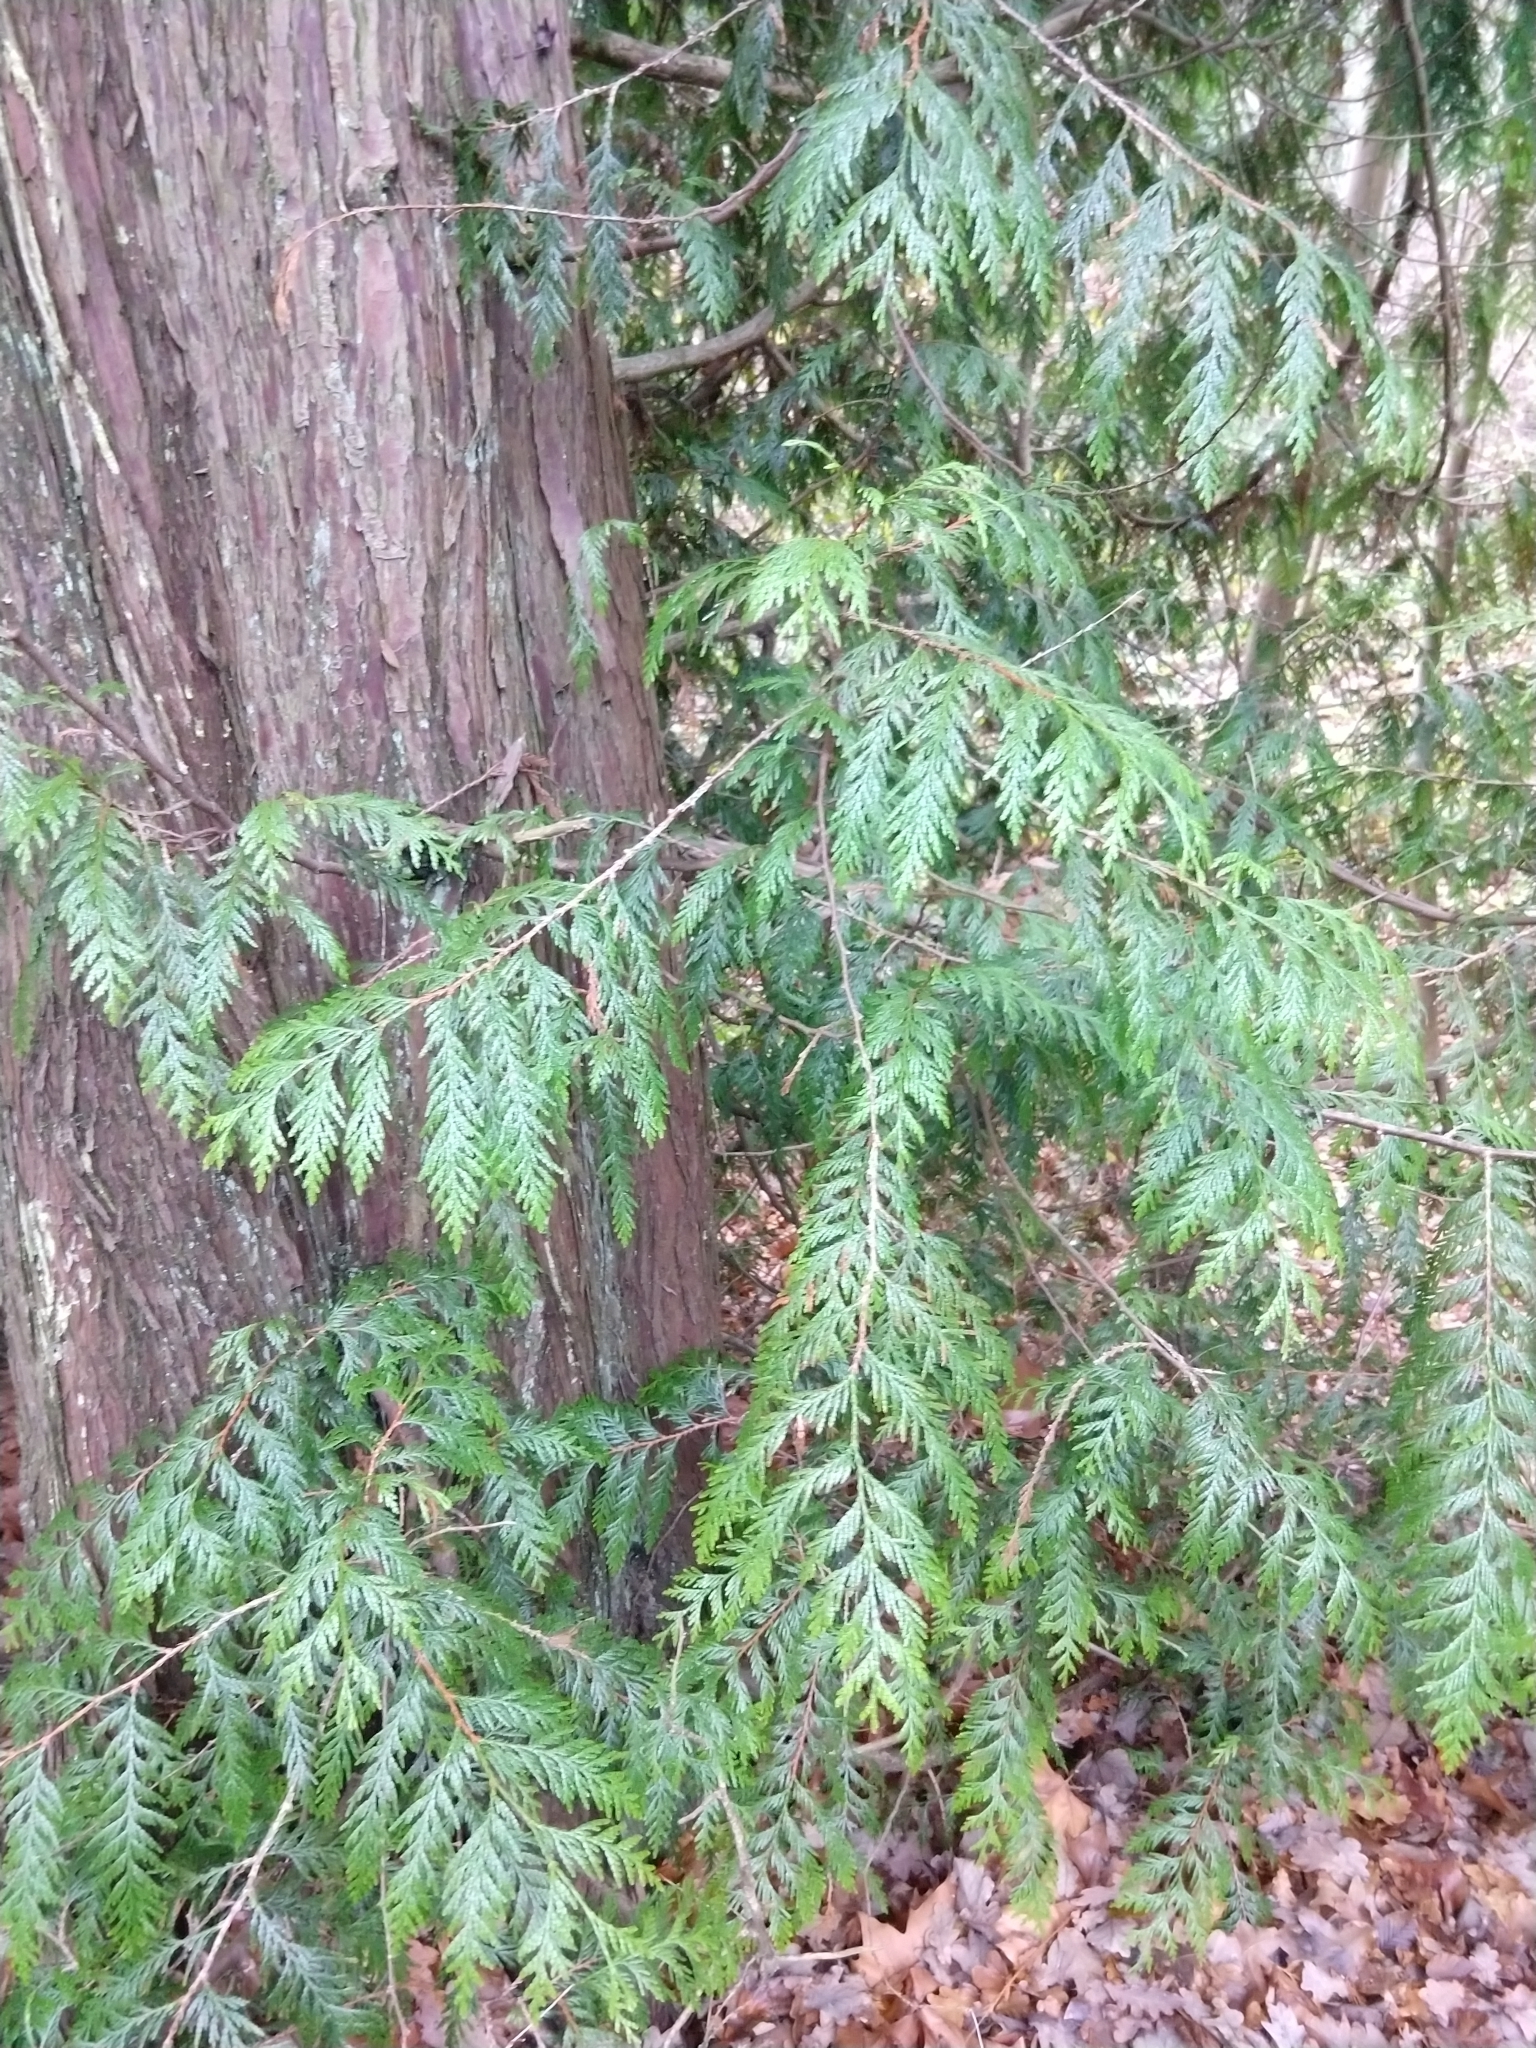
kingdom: Plantae
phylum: Tracheophyta
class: Pinopsida
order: Pinales
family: Cupressaceae
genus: Thuja
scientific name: Thuja plicata
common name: Western red-cedar
